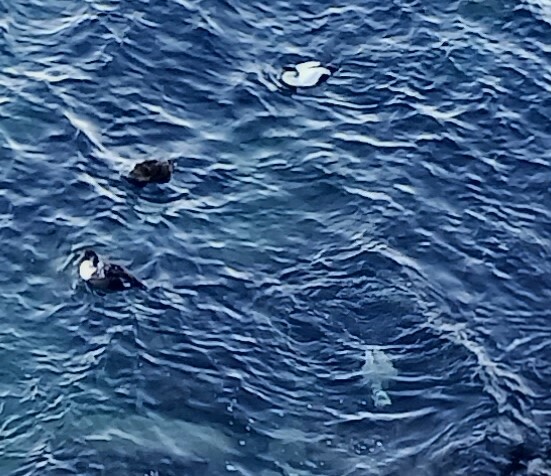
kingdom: Animalia
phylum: Chordata
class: Aves
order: Anseriformes
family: Anatidae
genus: Somateria
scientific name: Somateria mollissima
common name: Common eider
